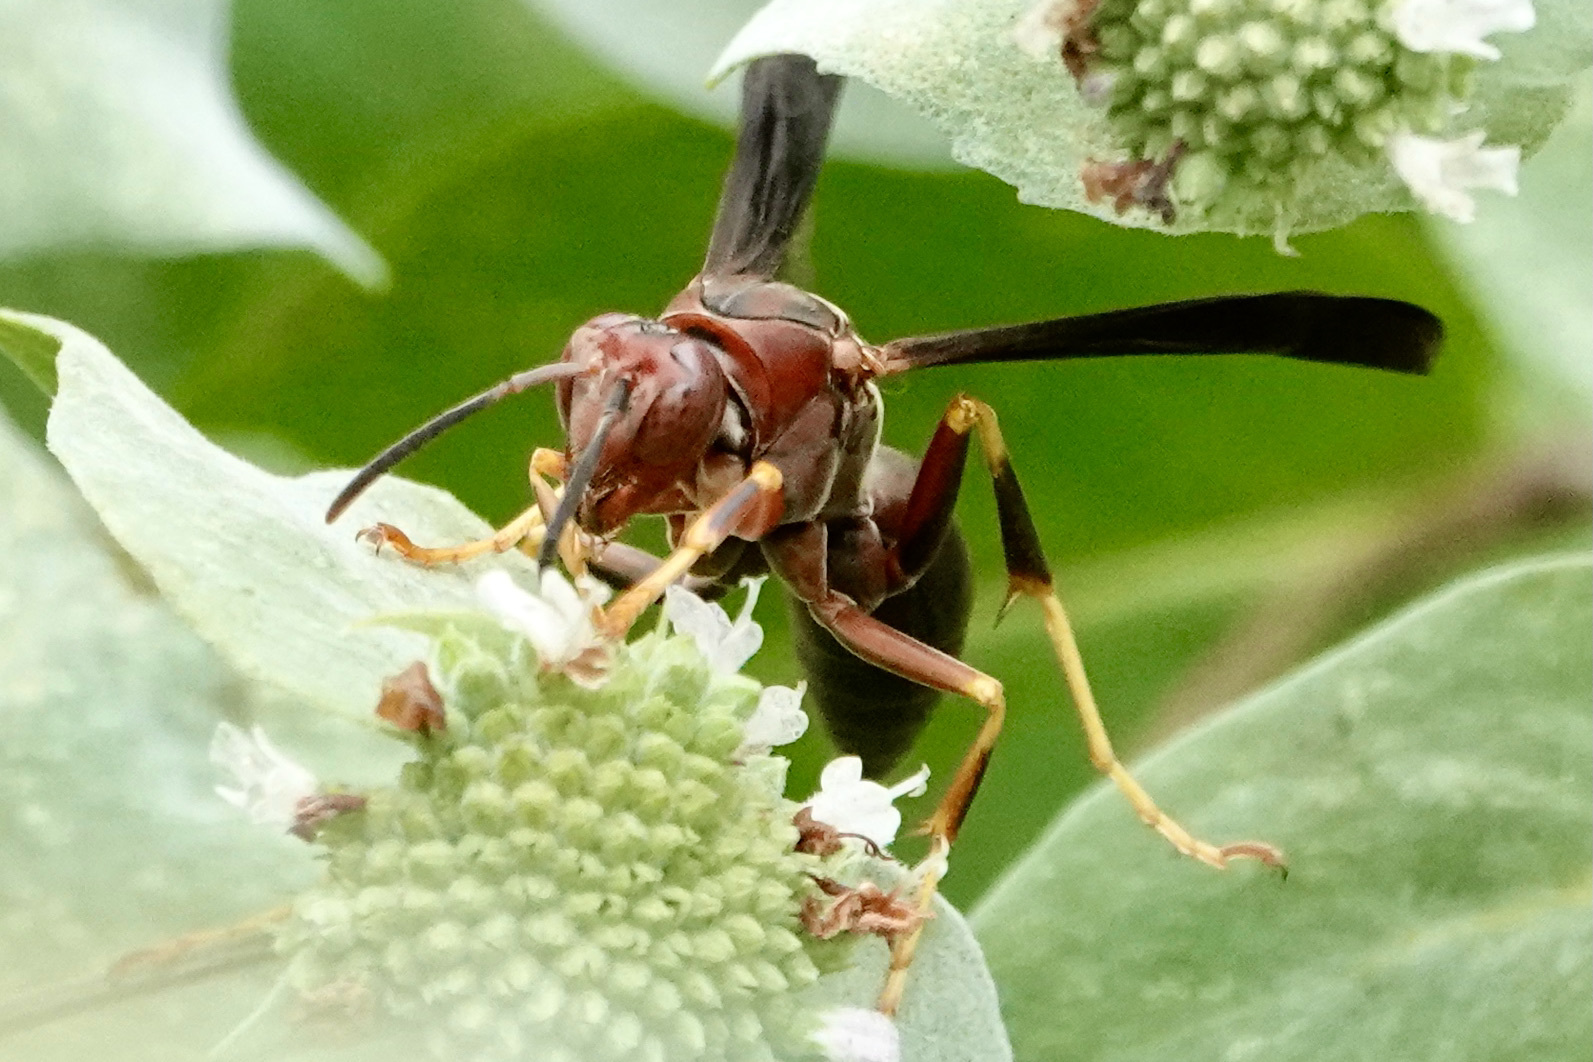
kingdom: Animalia
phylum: Arthropoda
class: Insecta
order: Hymenoptera
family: Eumenidae
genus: Polistes
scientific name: Polistes metricus
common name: Metric paper wasp
